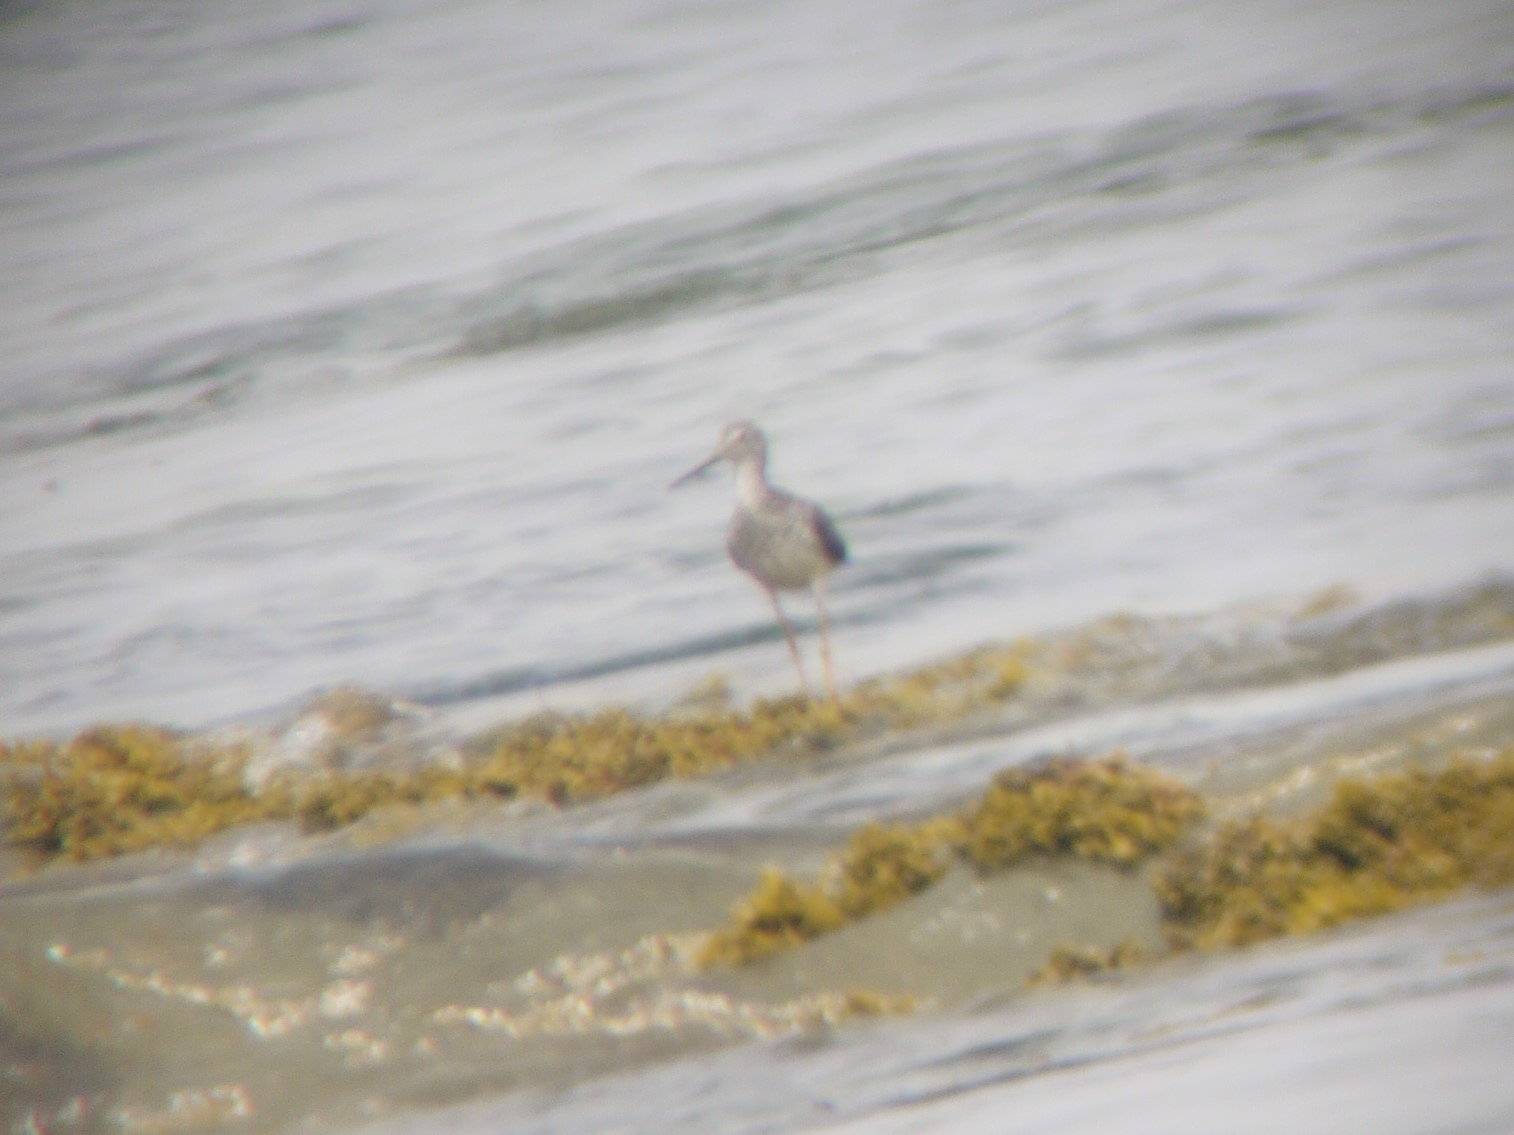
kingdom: Animalia
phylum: Chordata
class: Aves
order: Charadriiformes
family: Scolopacidae
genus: Tringa
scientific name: Tringa melanoleuca
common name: Greater yellowlegs
